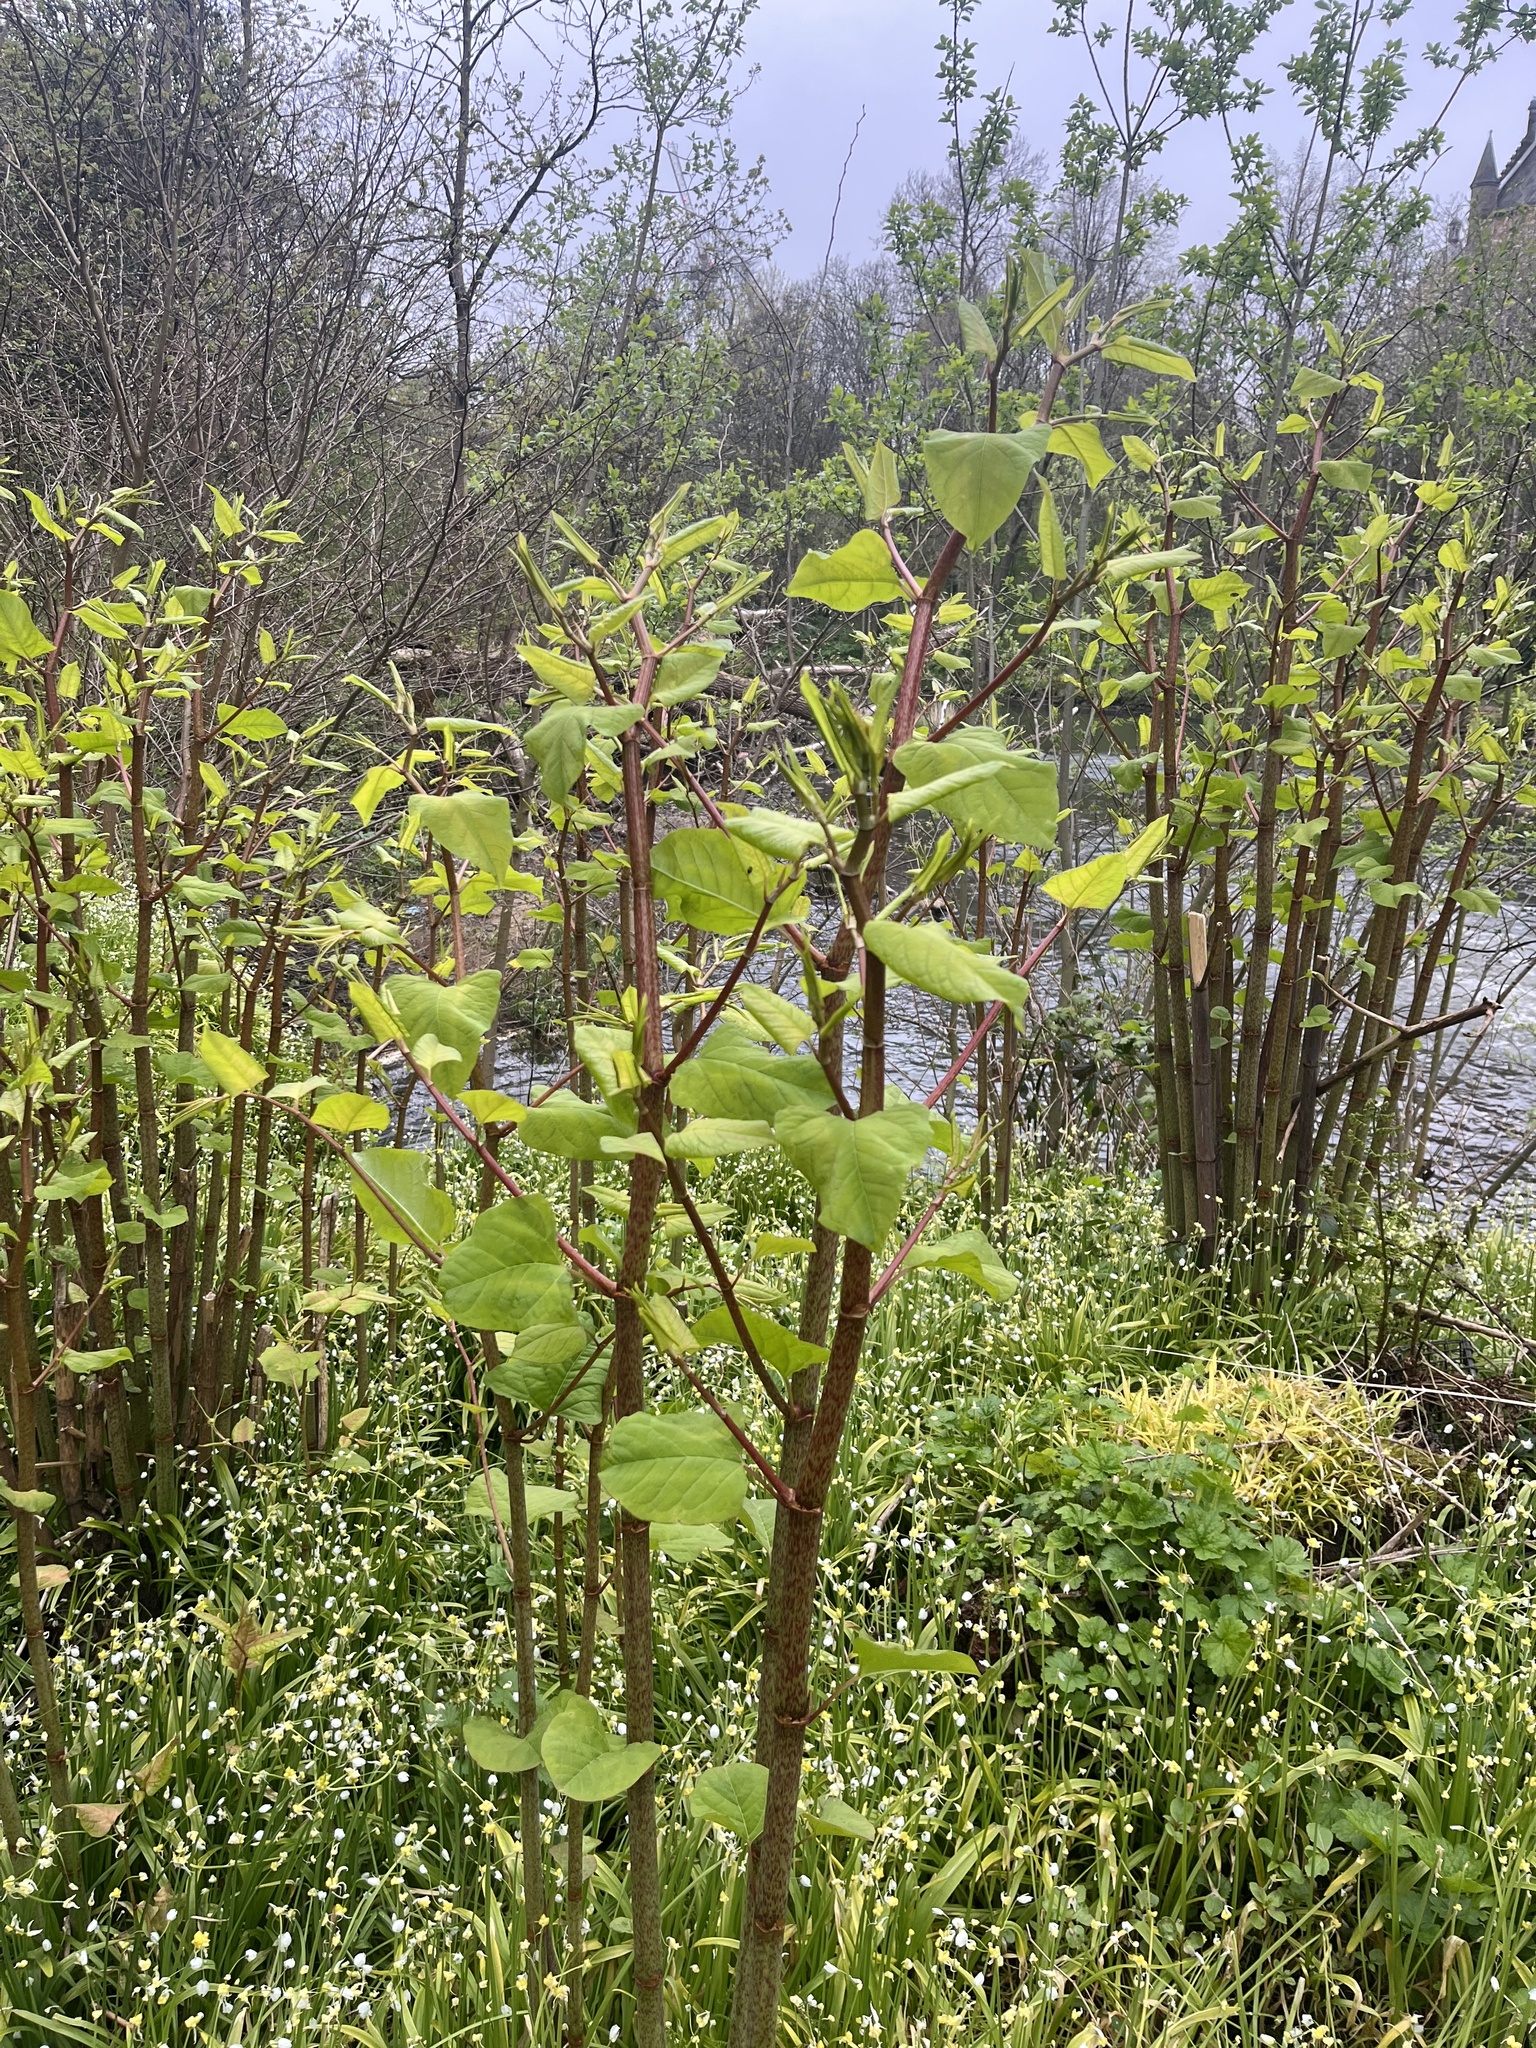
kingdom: Plantae
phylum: Tracheophyta
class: Magnoliopsida
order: Caryophyllales
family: Polygonaceae
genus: Reynoutria
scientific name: Reynoutria japonica
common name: Japanese knotweed
